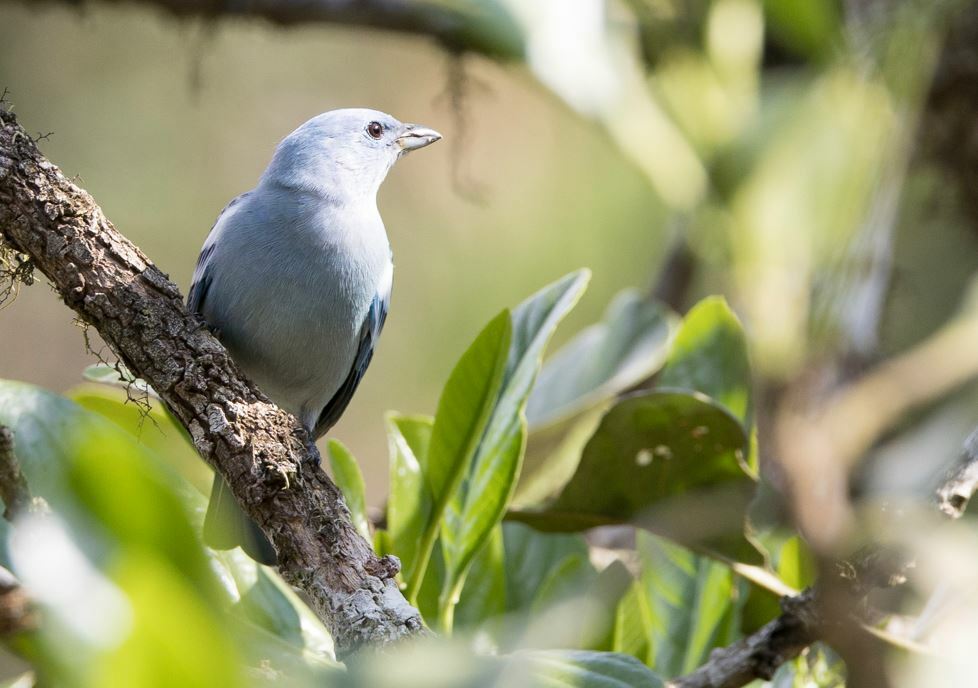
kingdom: Animalia
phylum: Chordata
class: Aves
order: Passeriformes
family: Thraupidae
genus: Thraupis
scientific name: Thraupis episcopus
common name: Blue-grey tanager
